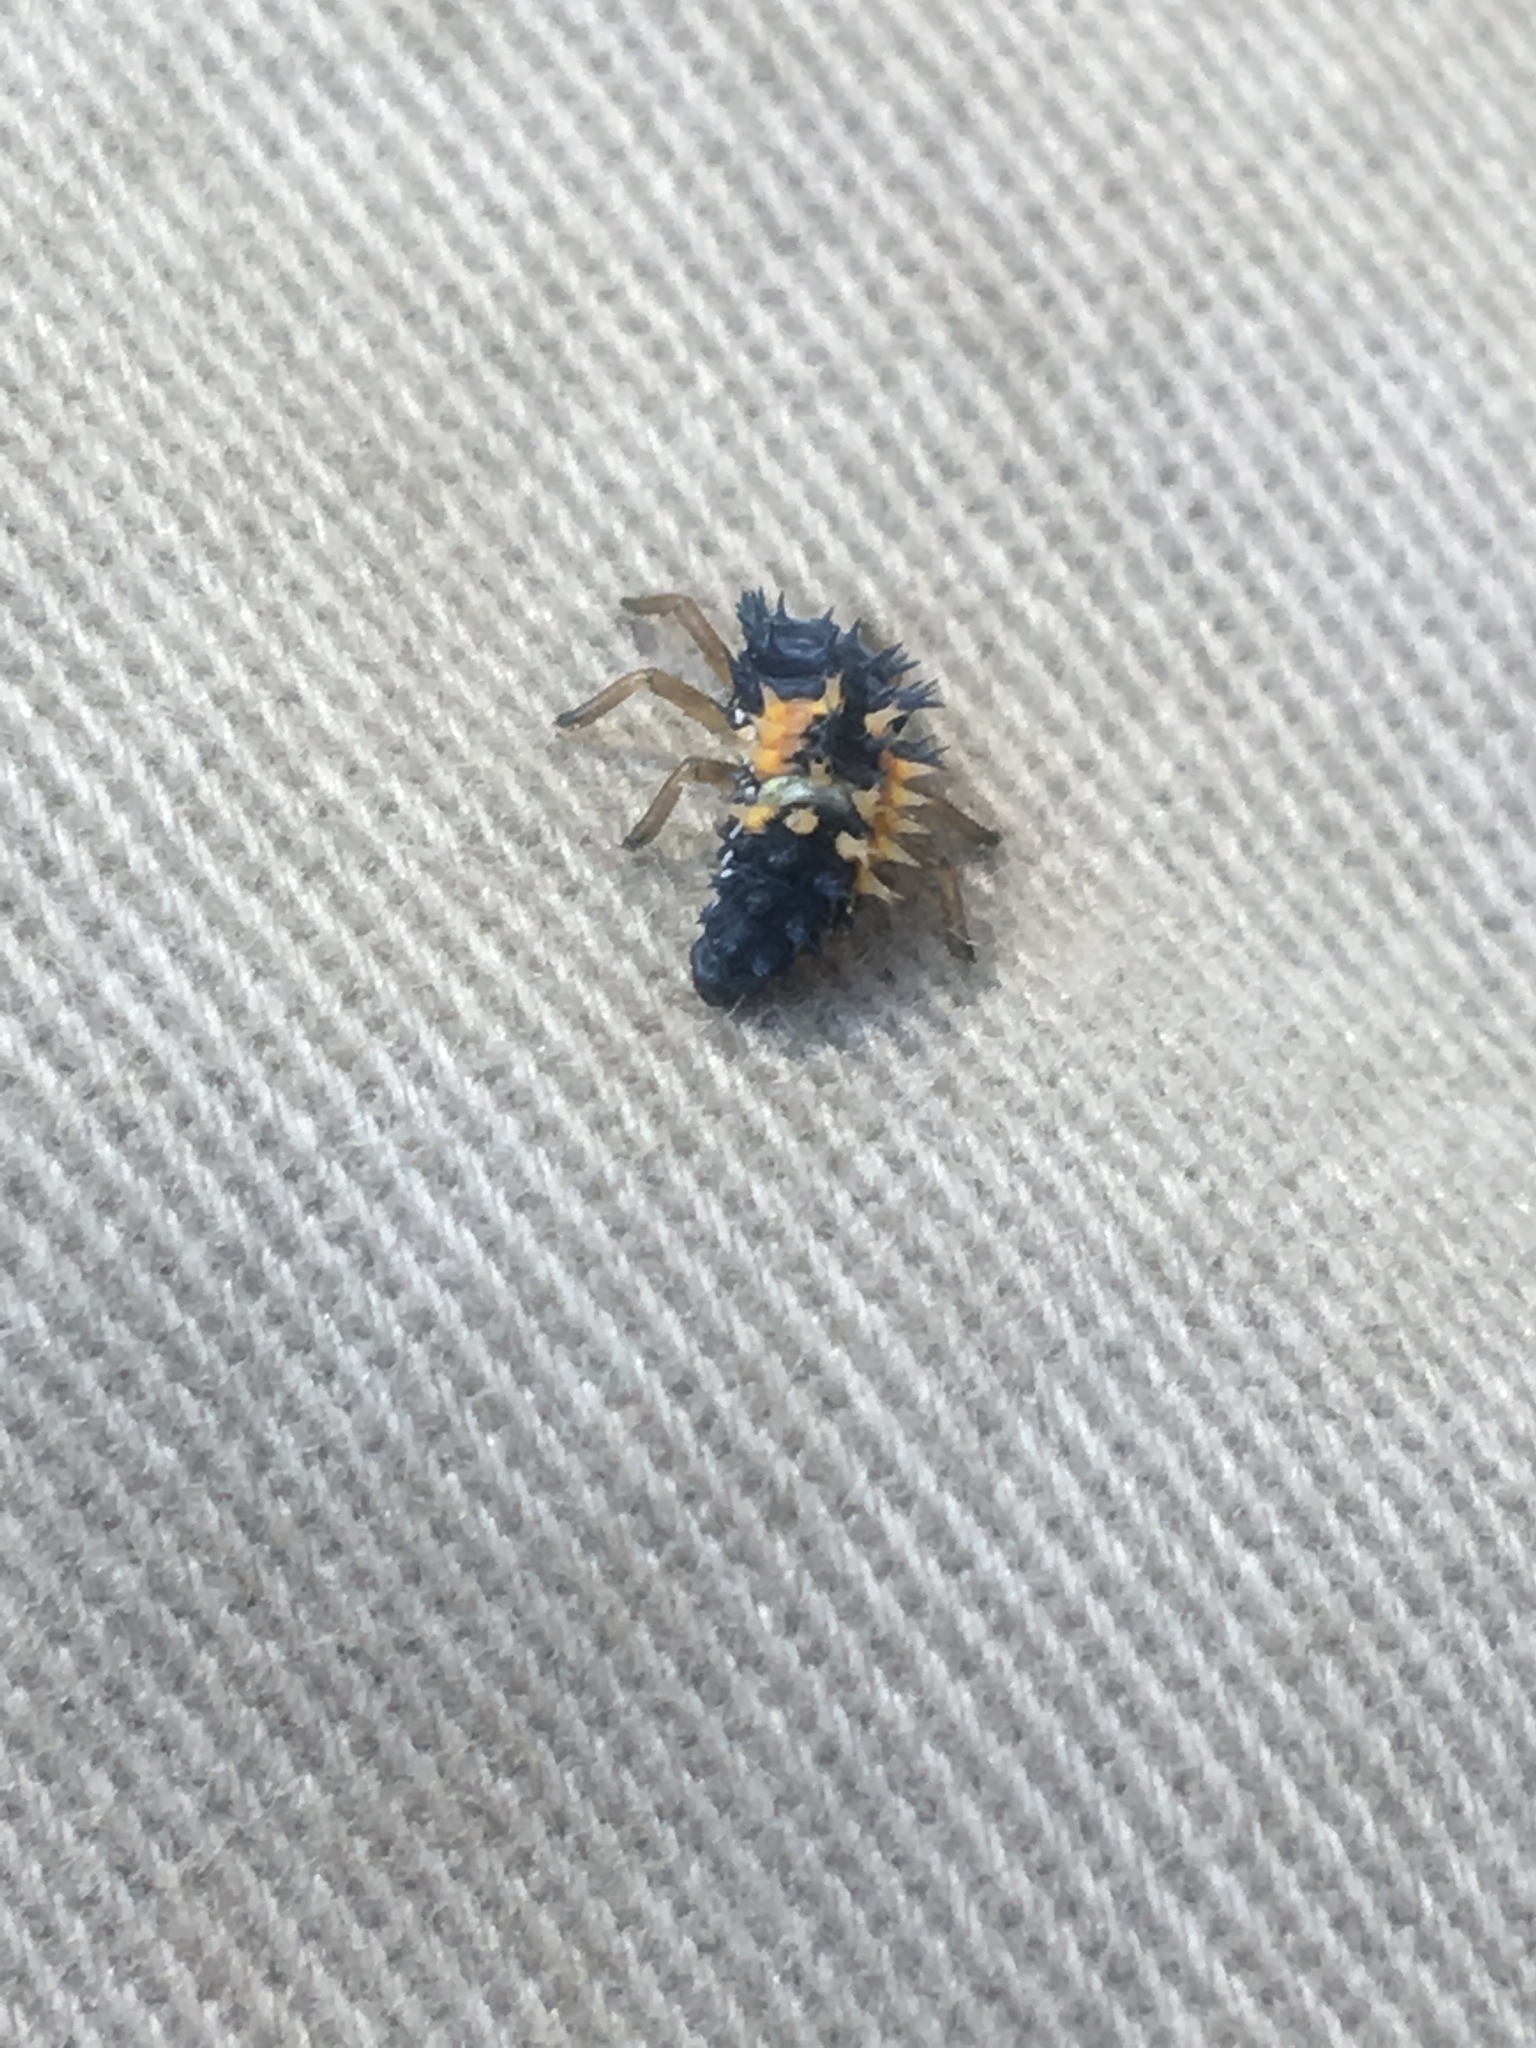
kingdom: Animalia
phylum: Arthropoda
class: Insecta
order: Coleoptera
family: Coccinellidae
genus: Harmonia
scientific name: Harmonia axyridis
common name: Harlequin ladybird
